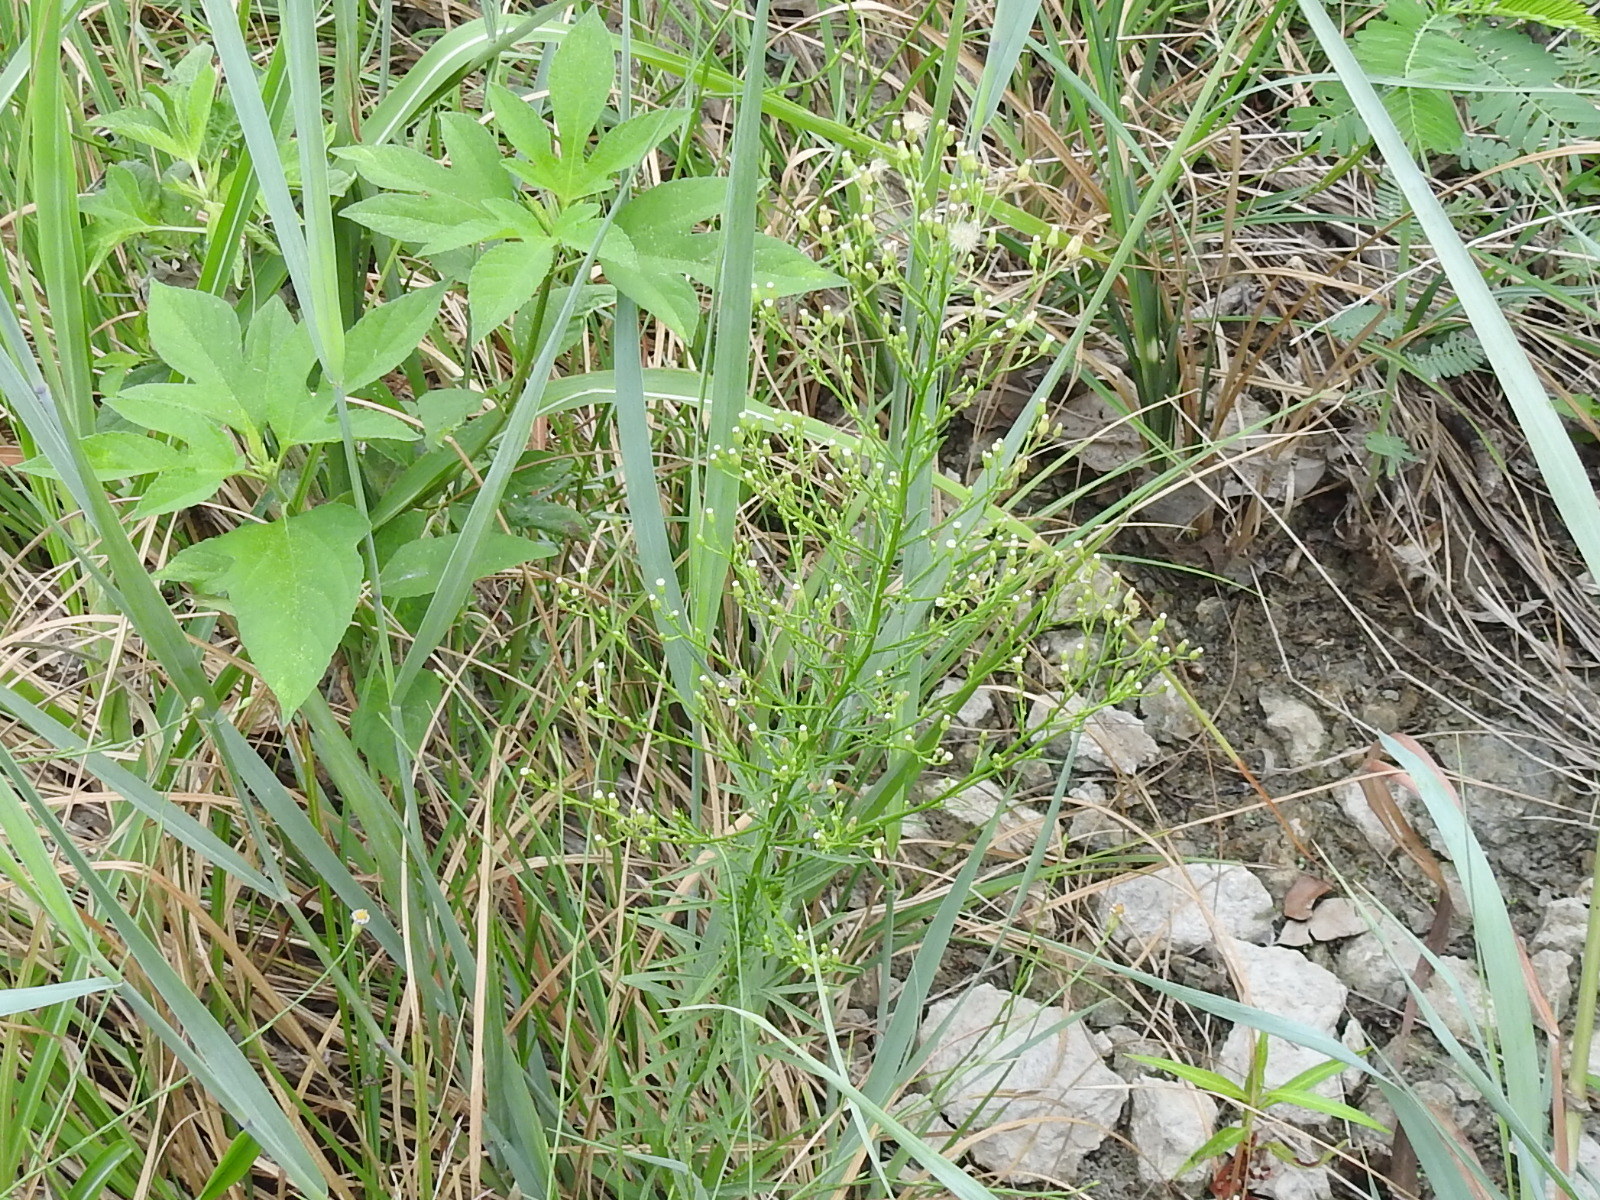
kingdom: Plantae
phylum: Tracheophyta
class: Magnoliopsida
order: Asterales
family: Asteraceae
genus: Erigeron
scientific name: Erigeron canadensis
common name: Canadian fleabane
